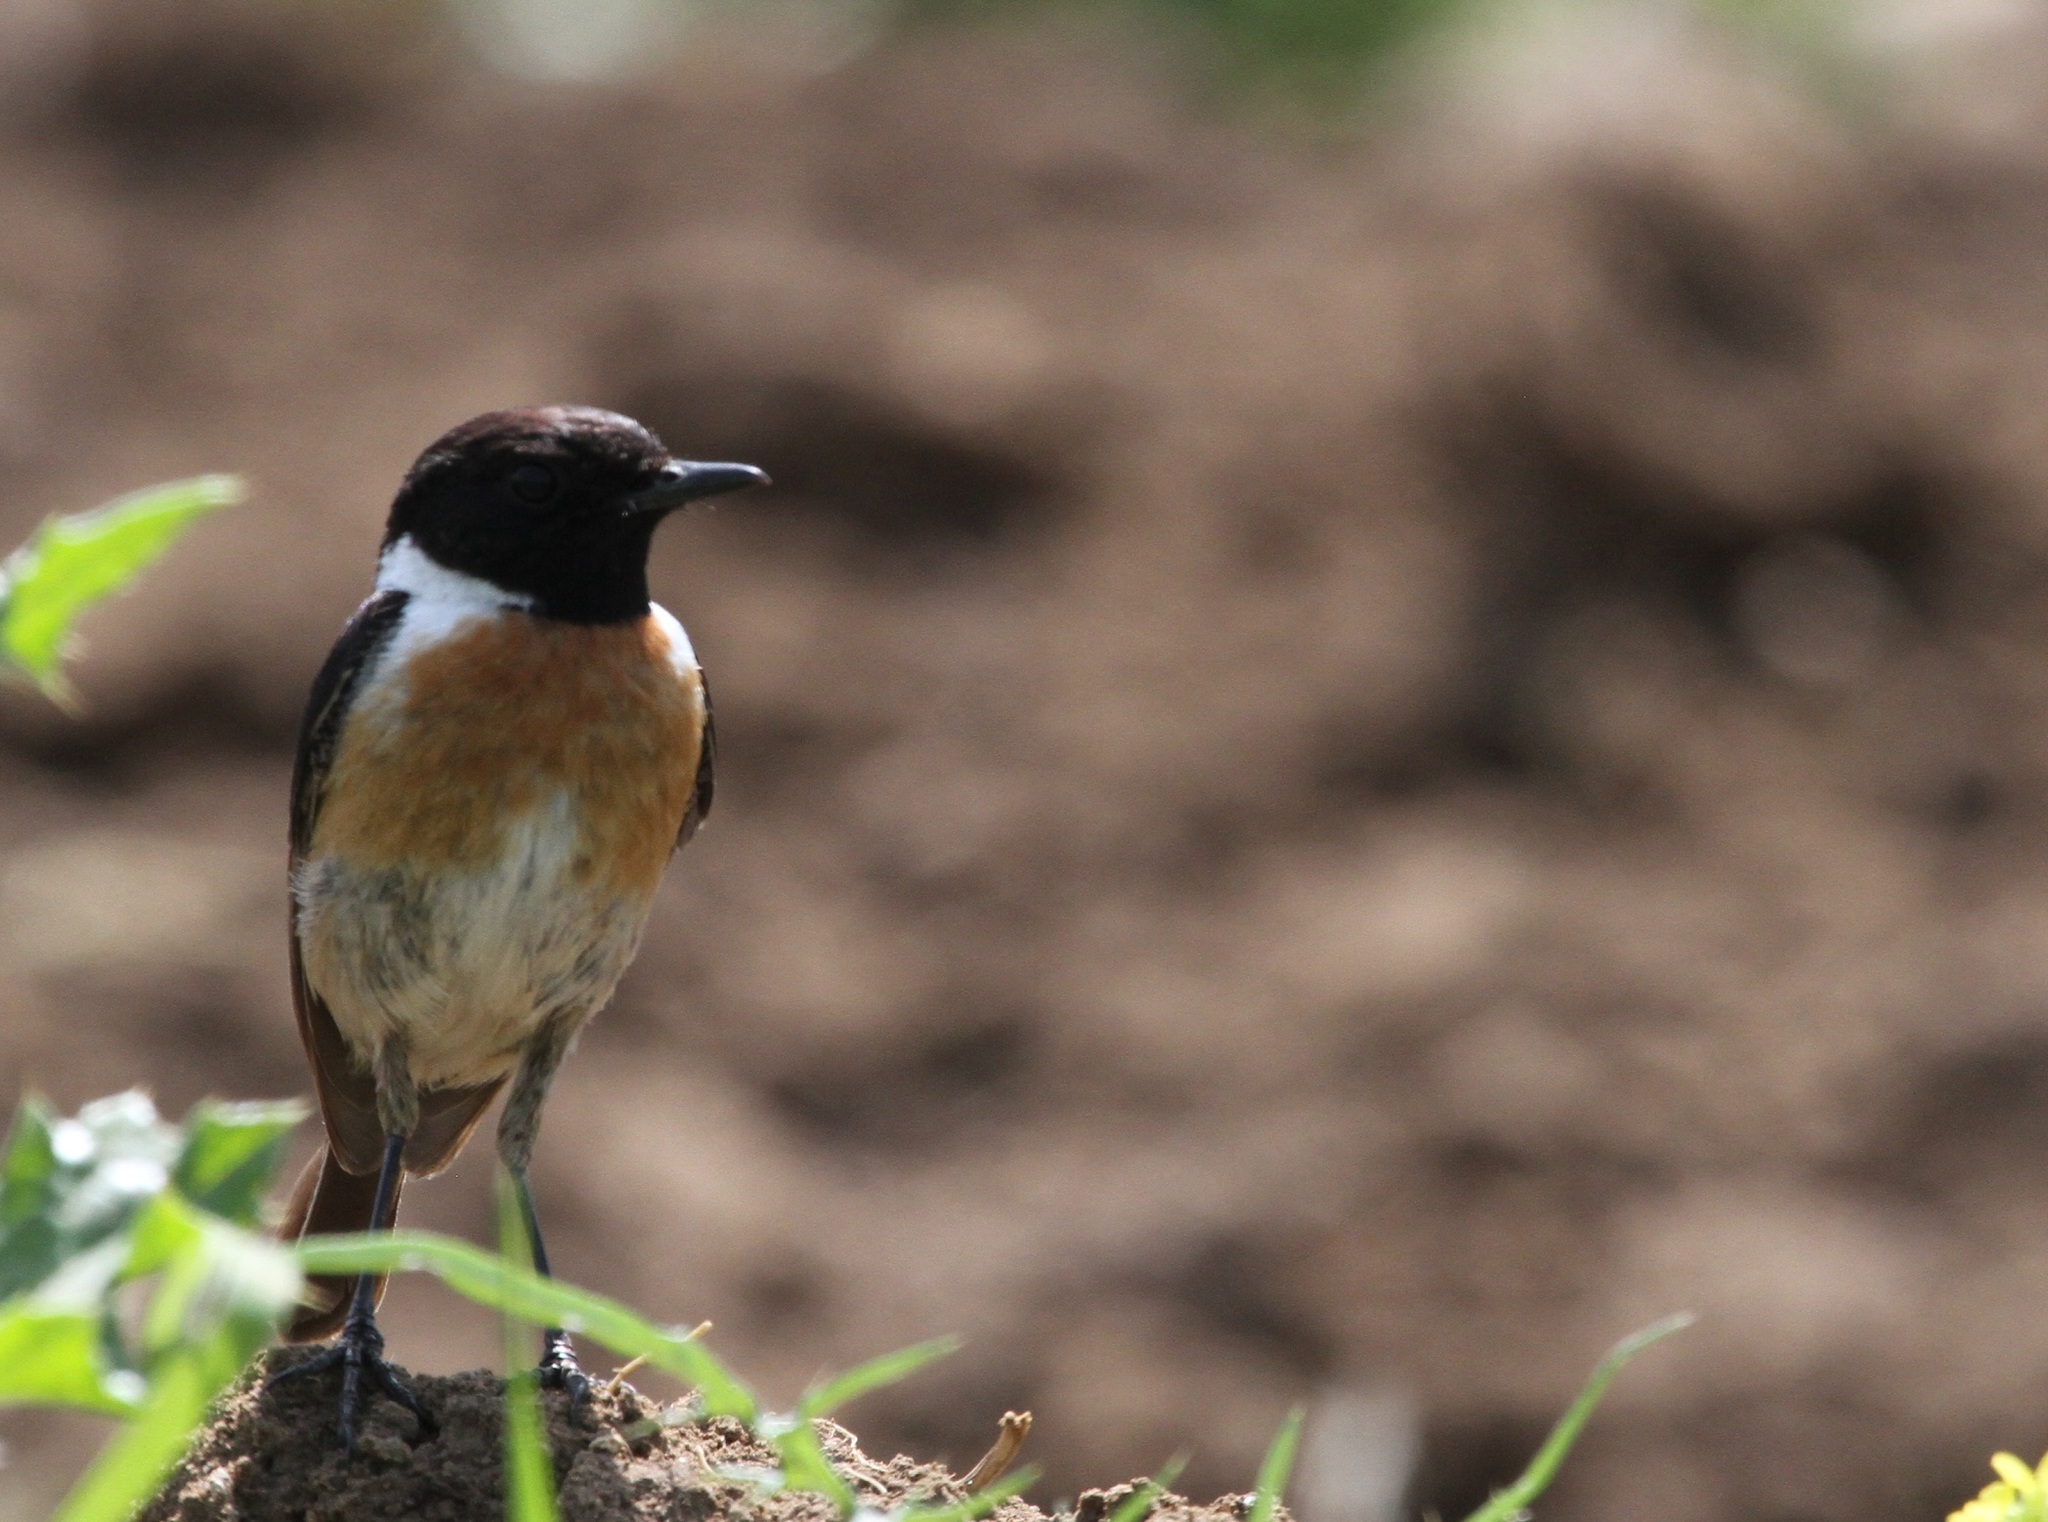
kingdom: Animalia
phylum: Chordata
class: Aves
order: Passeriformes
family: Muscicapidae
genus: Saxicola
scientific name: Saxicola rubicola
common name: European stonechat
